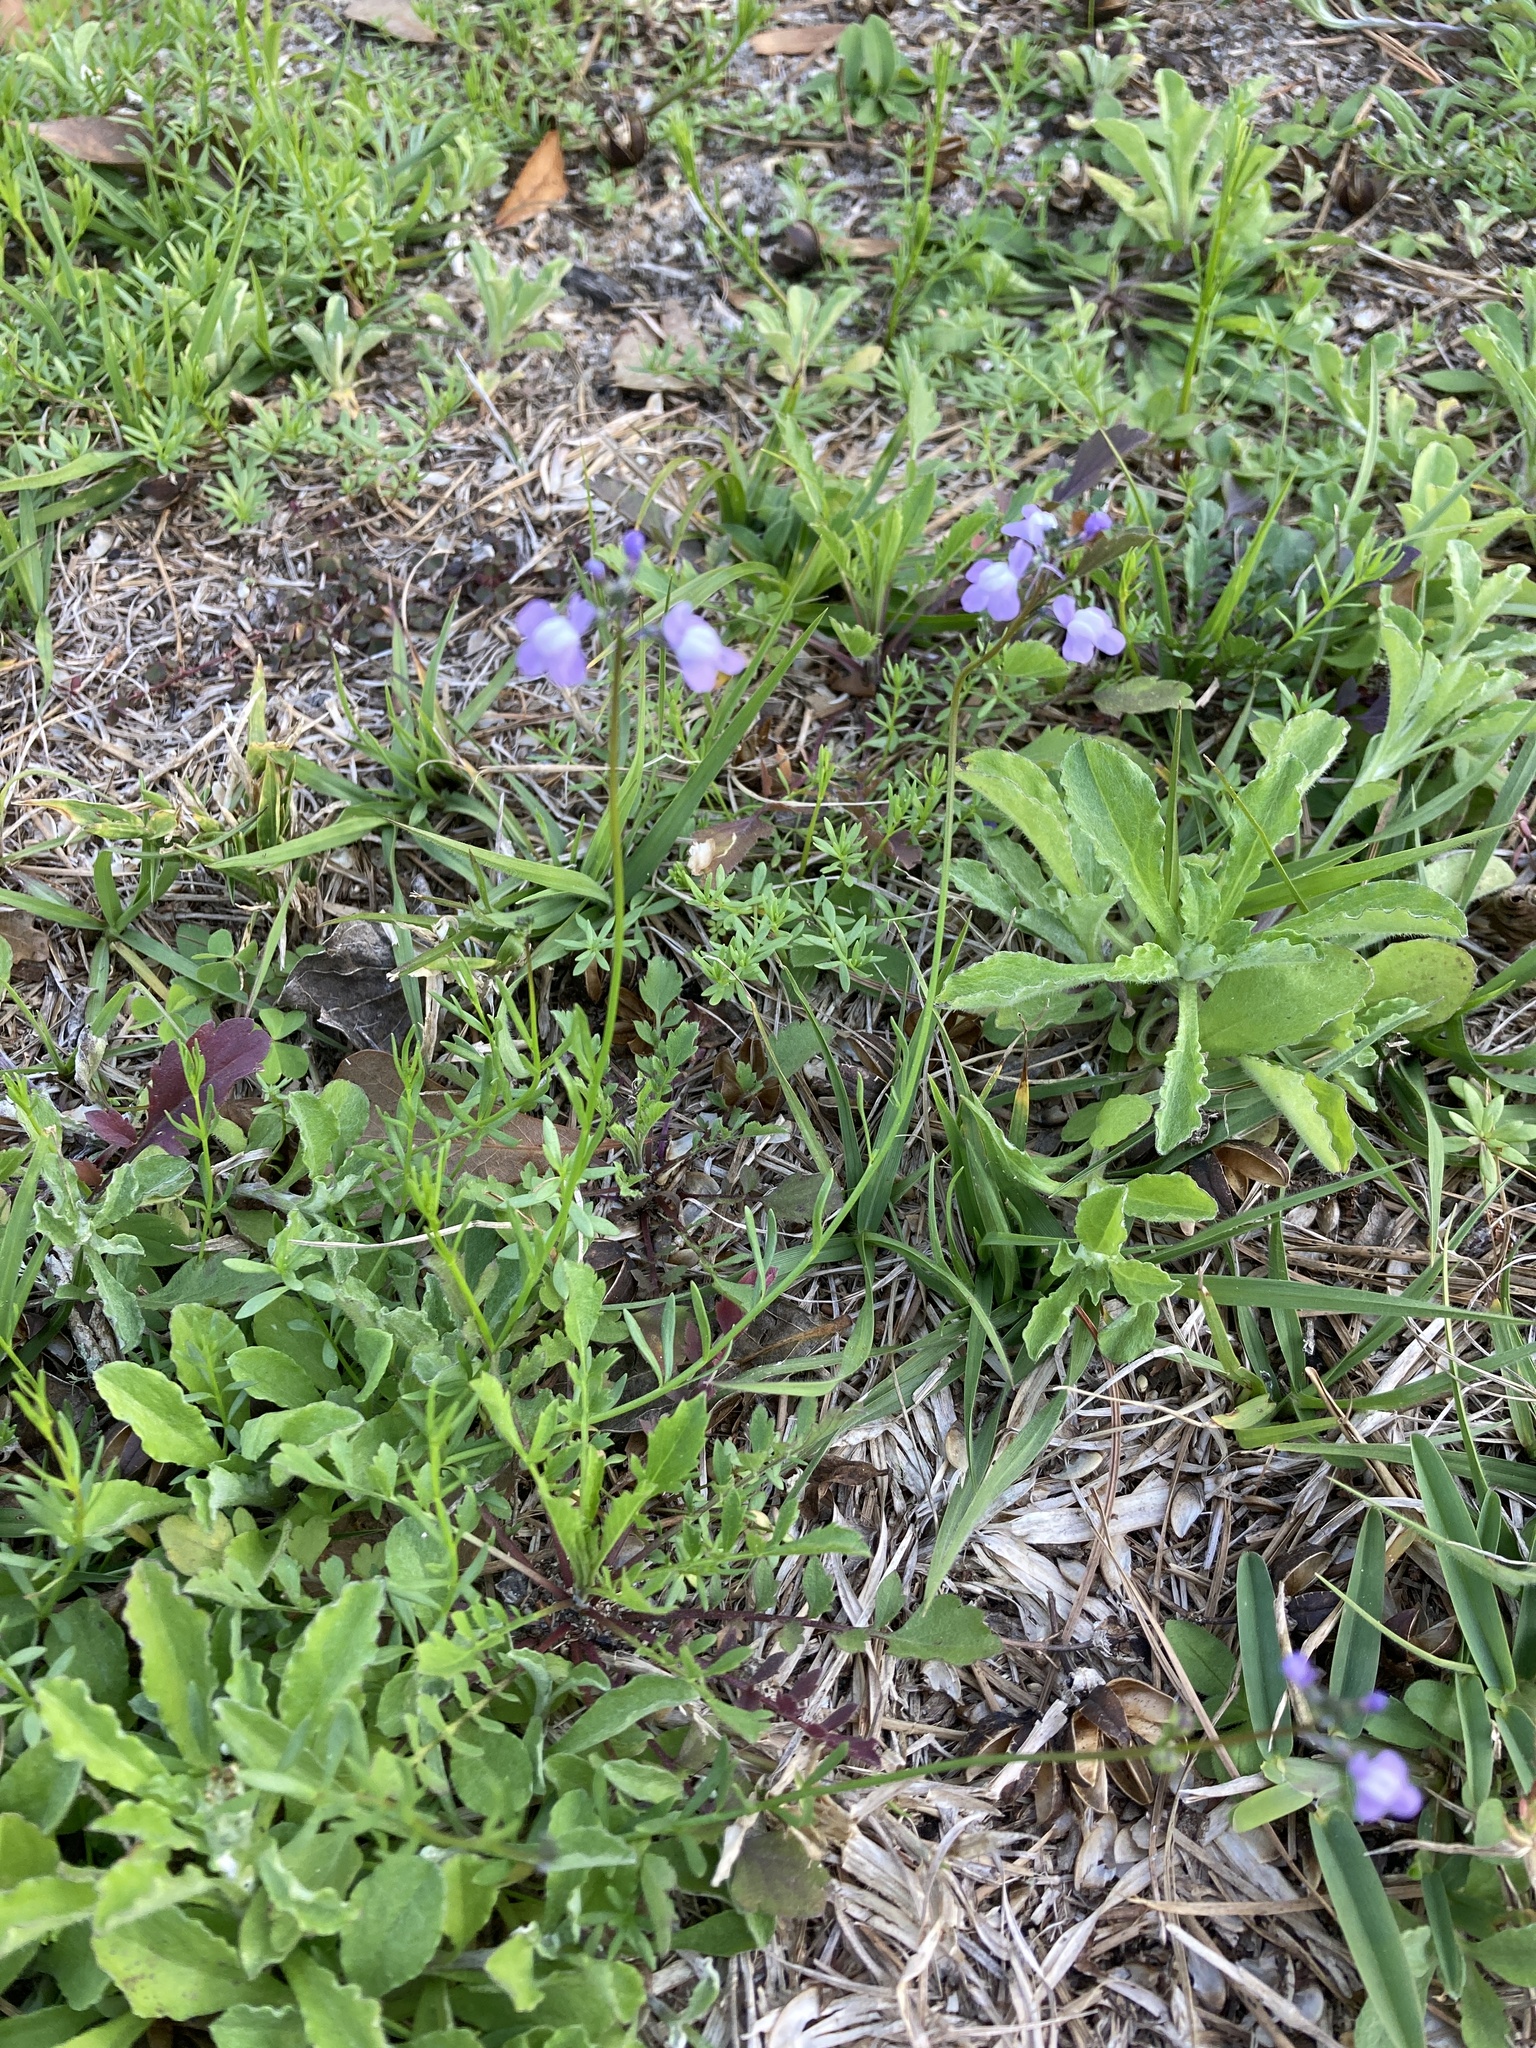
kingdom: Plantae
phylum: Tracheophyta
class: Magnoliopsida
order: Lamiales
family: Plantaginaceae
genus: Nuttallanthus
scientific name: Nuttallanthus canadensis
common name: Blue toadflax
